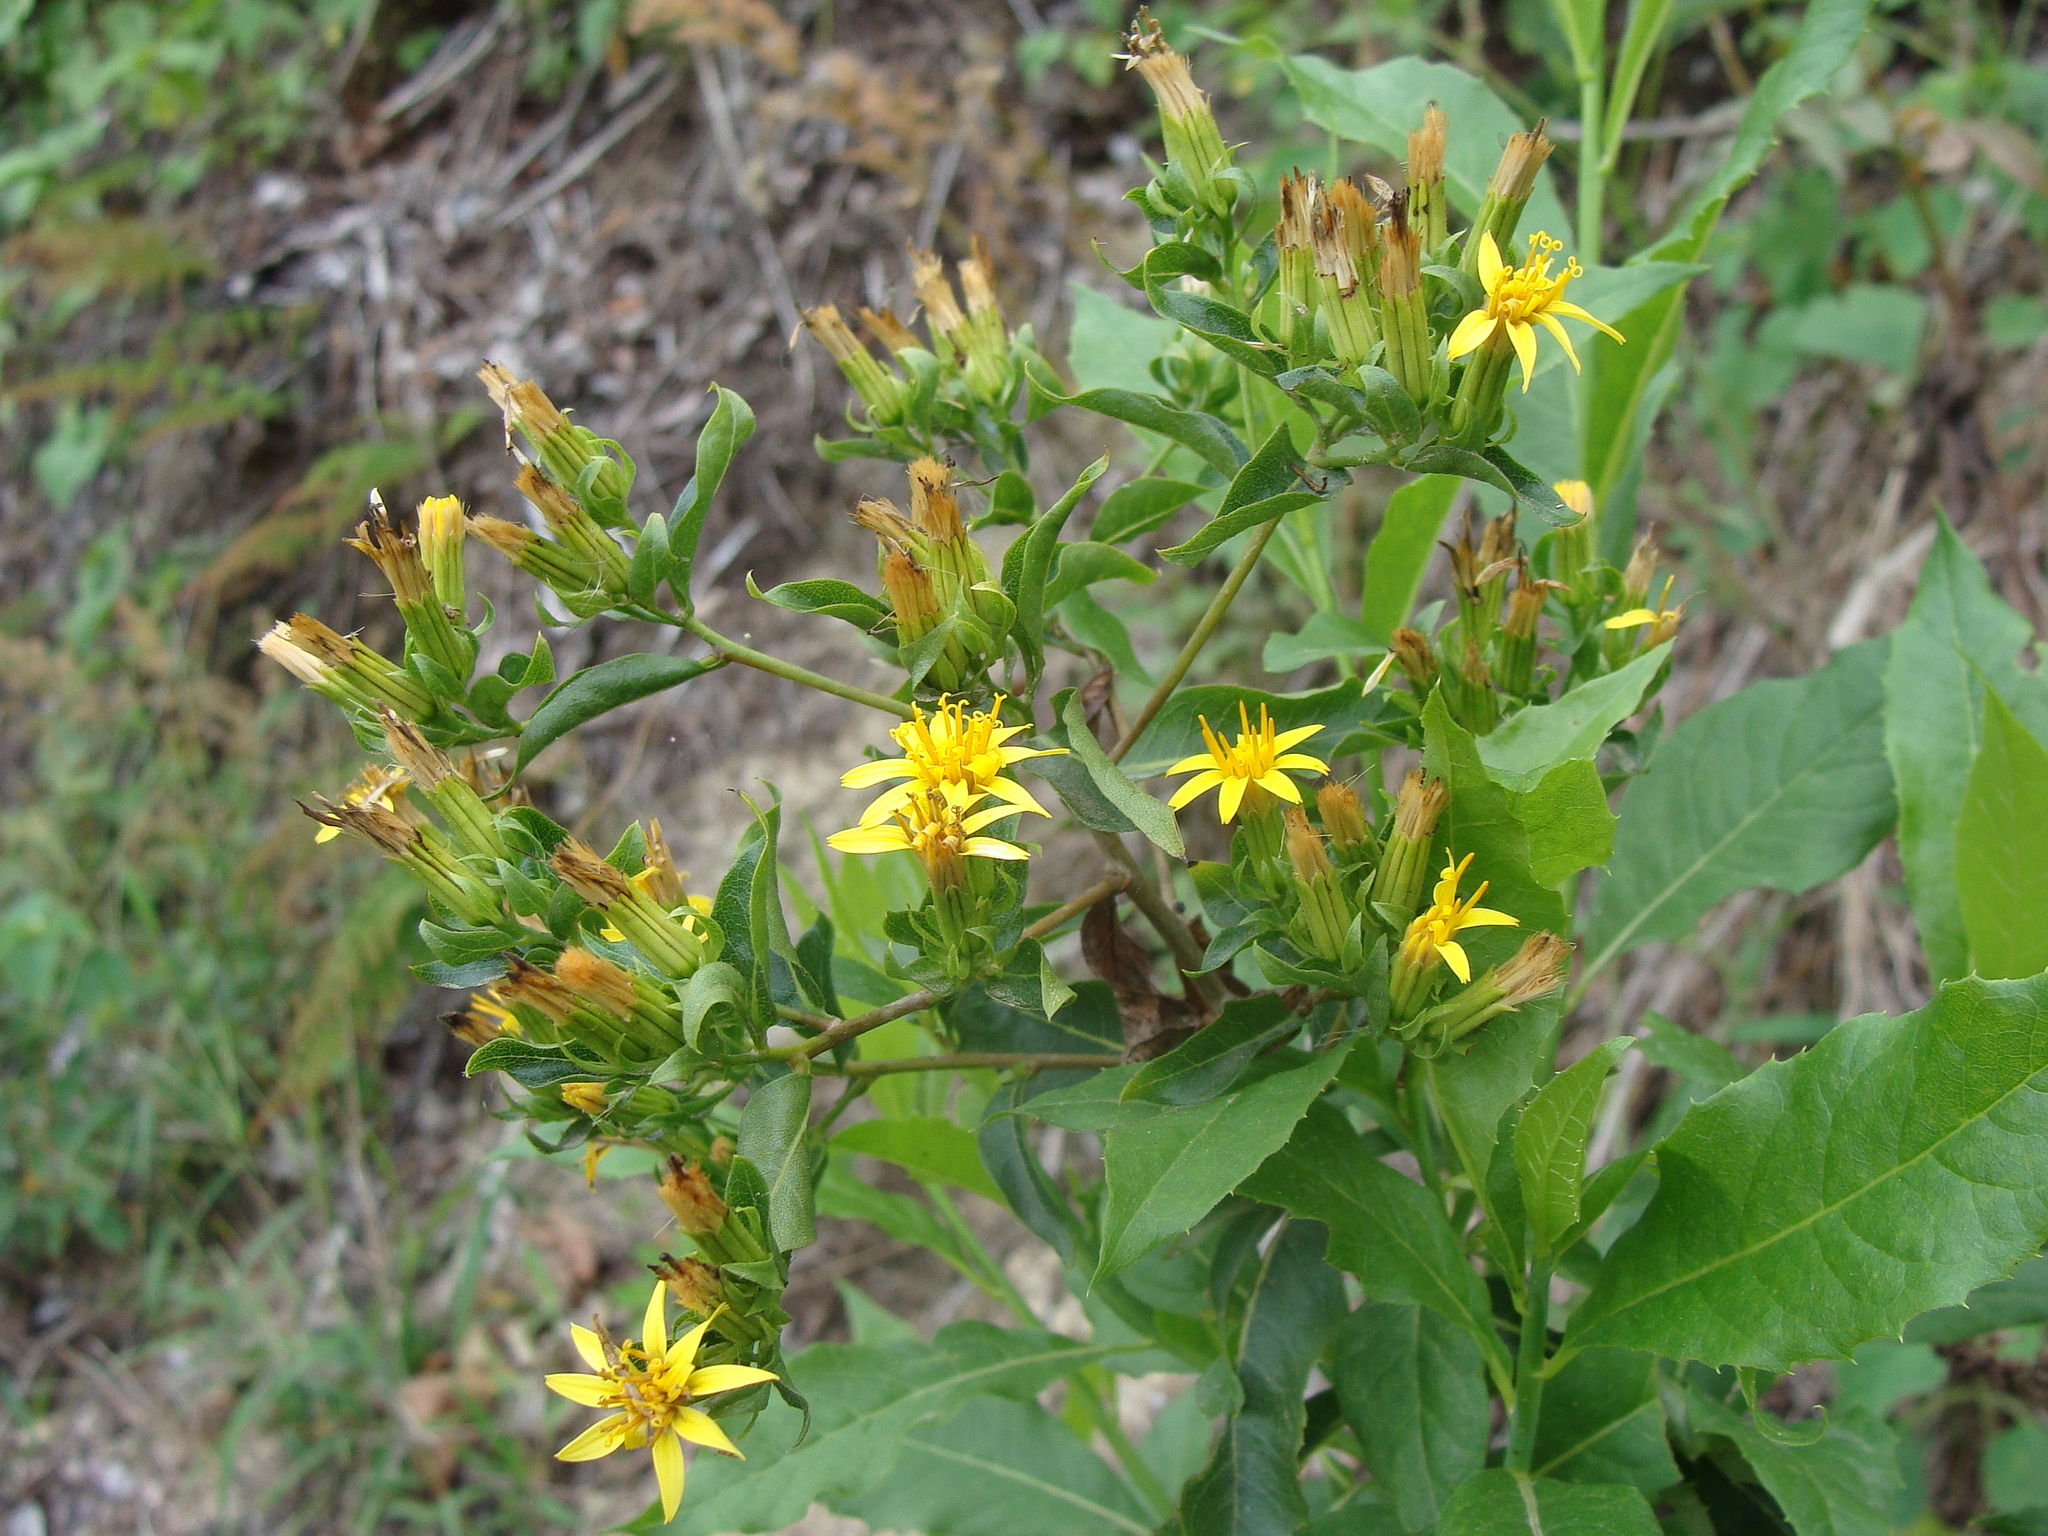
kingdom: Plantae
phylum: Tracheophyta
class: Magnoliopsida
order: Asterales
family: Asteraceae
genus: Trixis
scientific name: Trixis inula
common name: Tropical threefold
